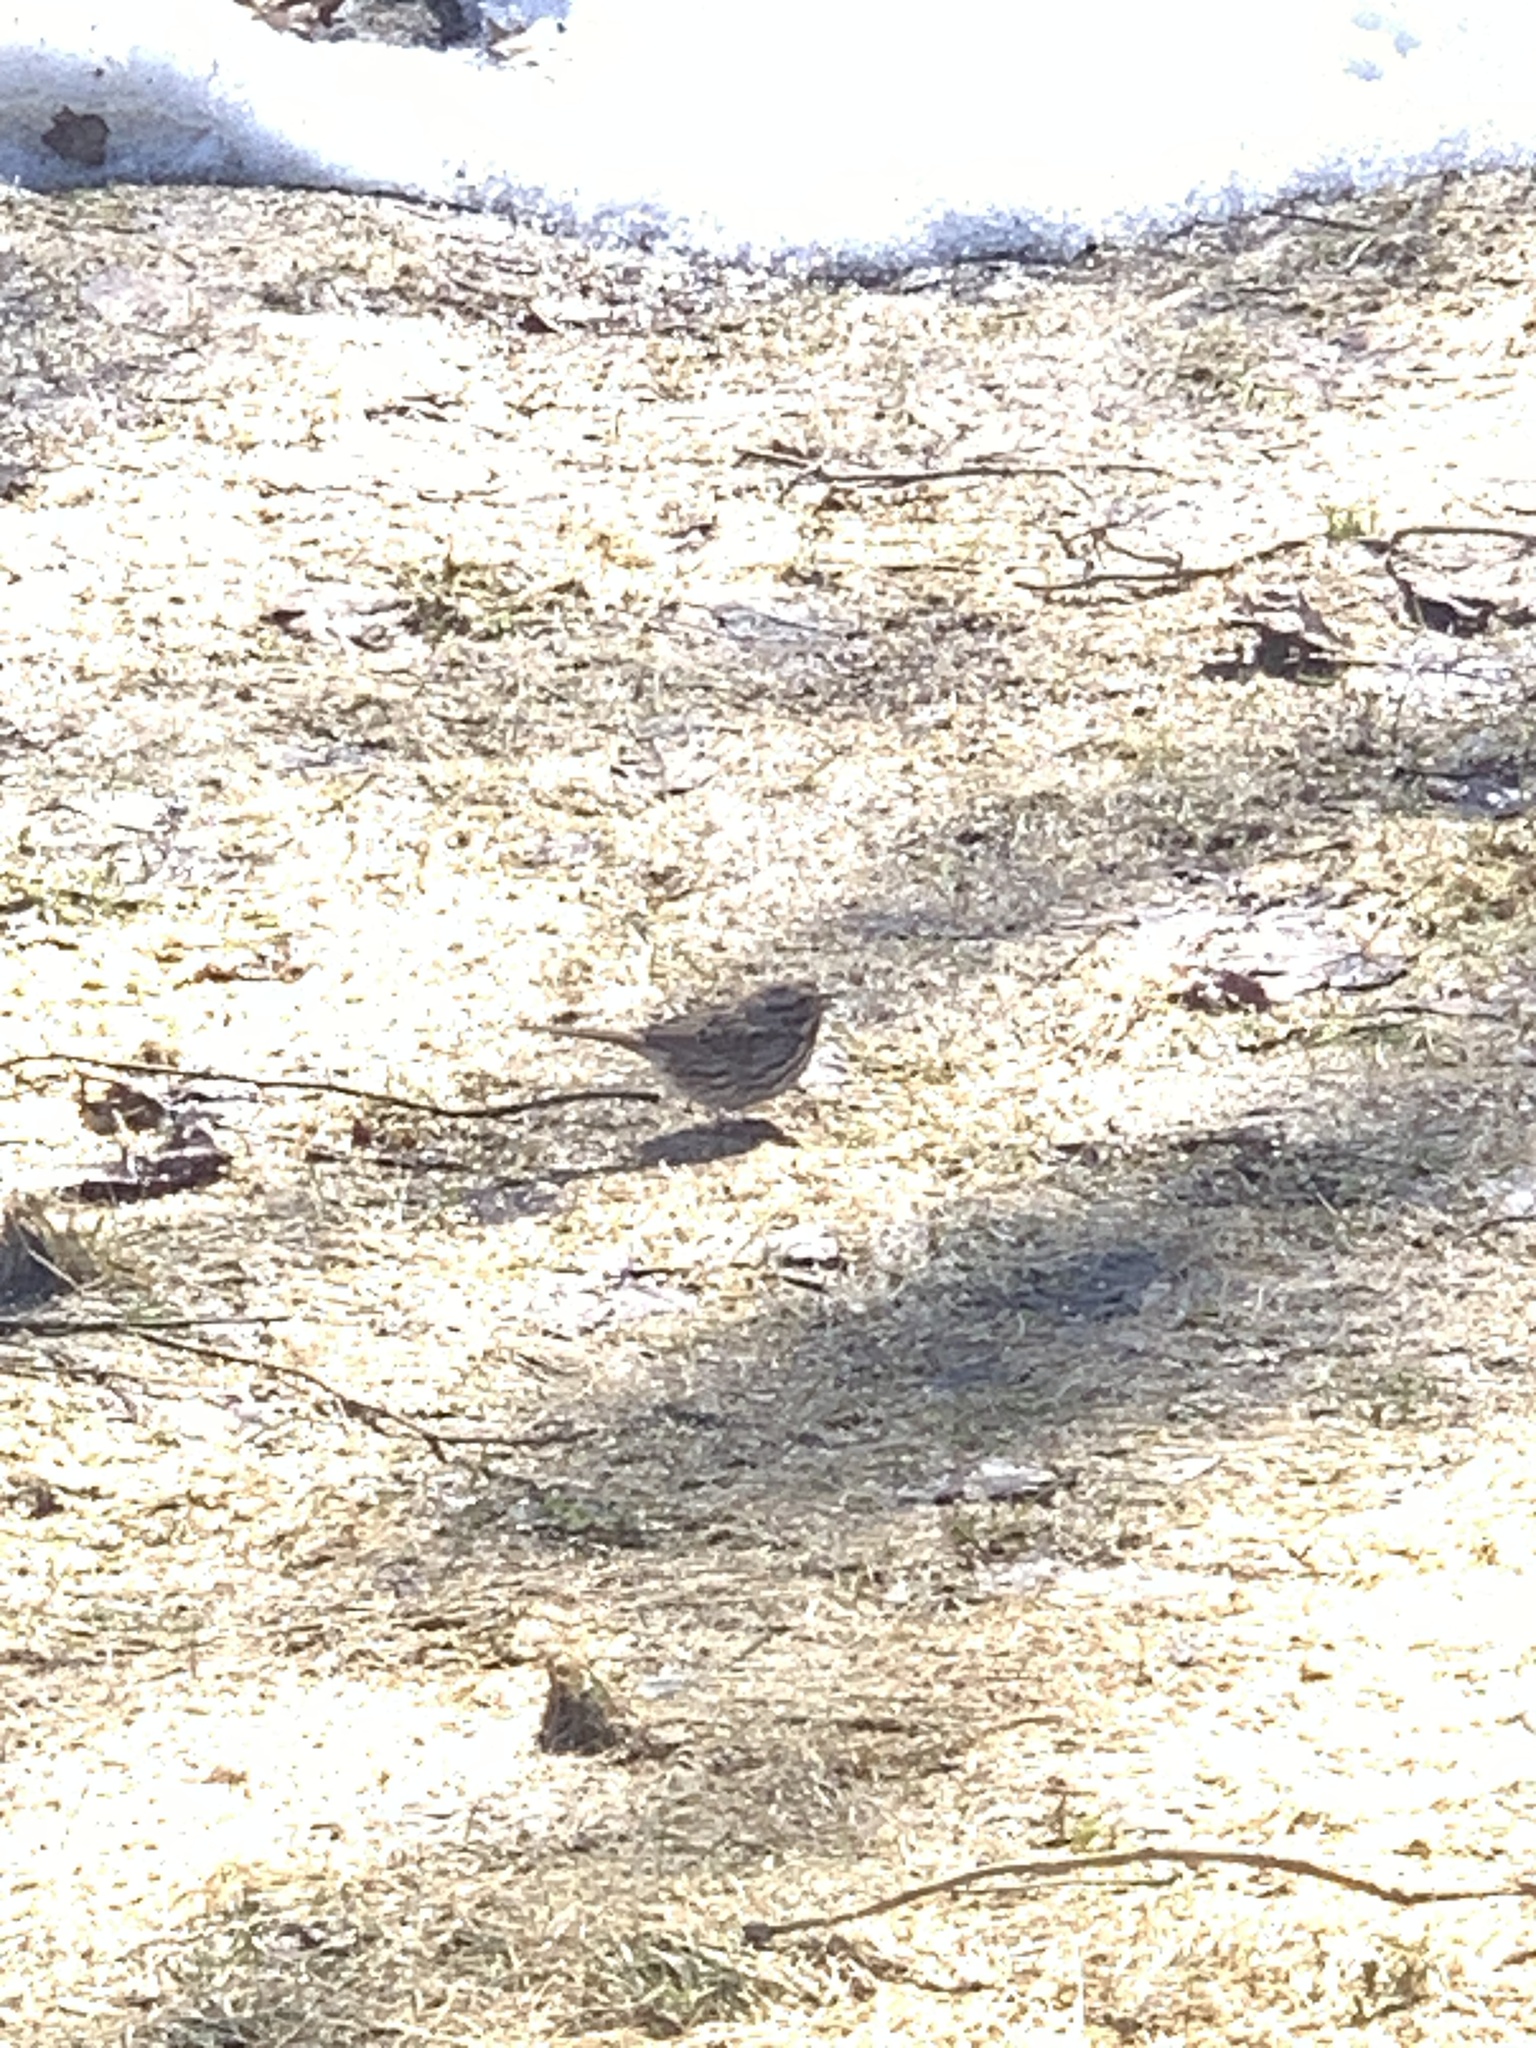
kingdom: Animalia
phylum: Chordata
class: Aves
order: Passeriformes
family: Passerellidae
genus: Melospiza
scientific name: Melospiza melodia
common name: Song sparrow
